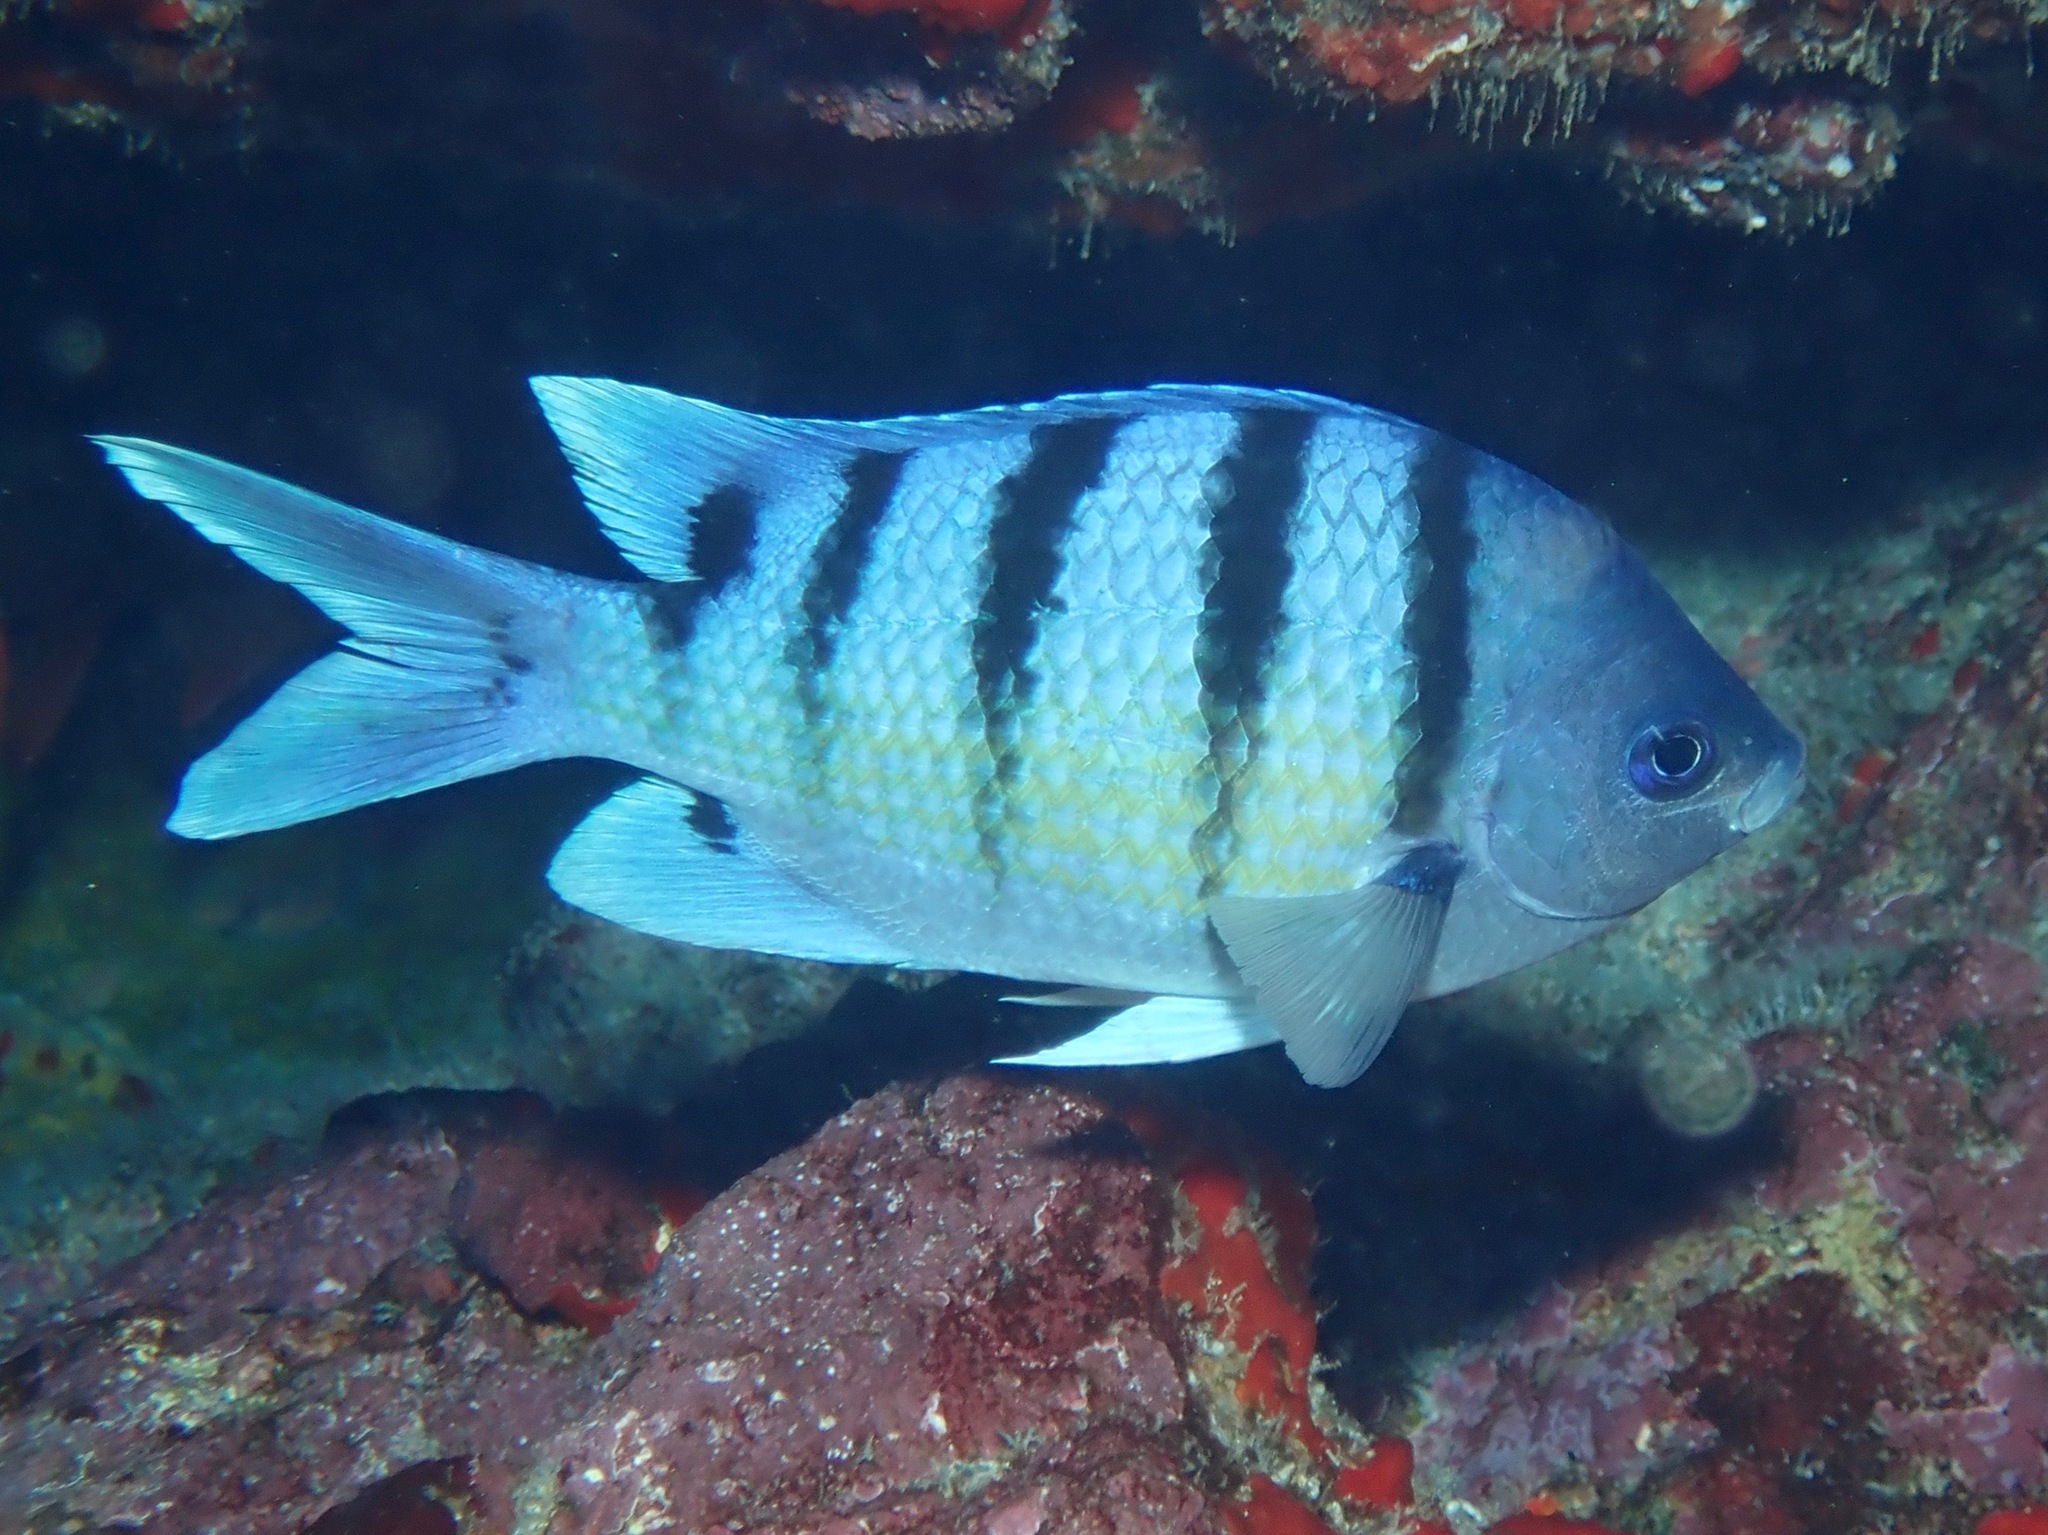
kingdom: Animalia
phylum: Chordata
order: Perciformes
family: Pomacentridae
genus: Abudefduf
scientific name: Abudefduf abdominalis
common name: Green damselfish
